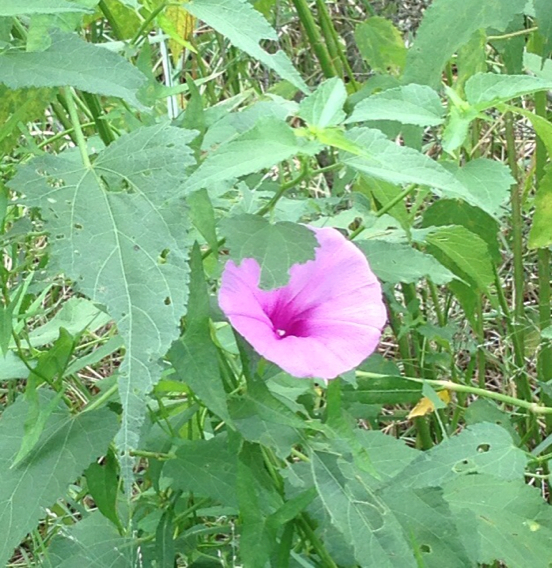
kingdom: Plantae
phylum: Tracheophyta
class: Magnoliopsida
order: Solanales
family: Convolvulaceae
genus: Ipomoea
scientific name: Ipomoea cordatotriloba
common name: Cotton morning glory
